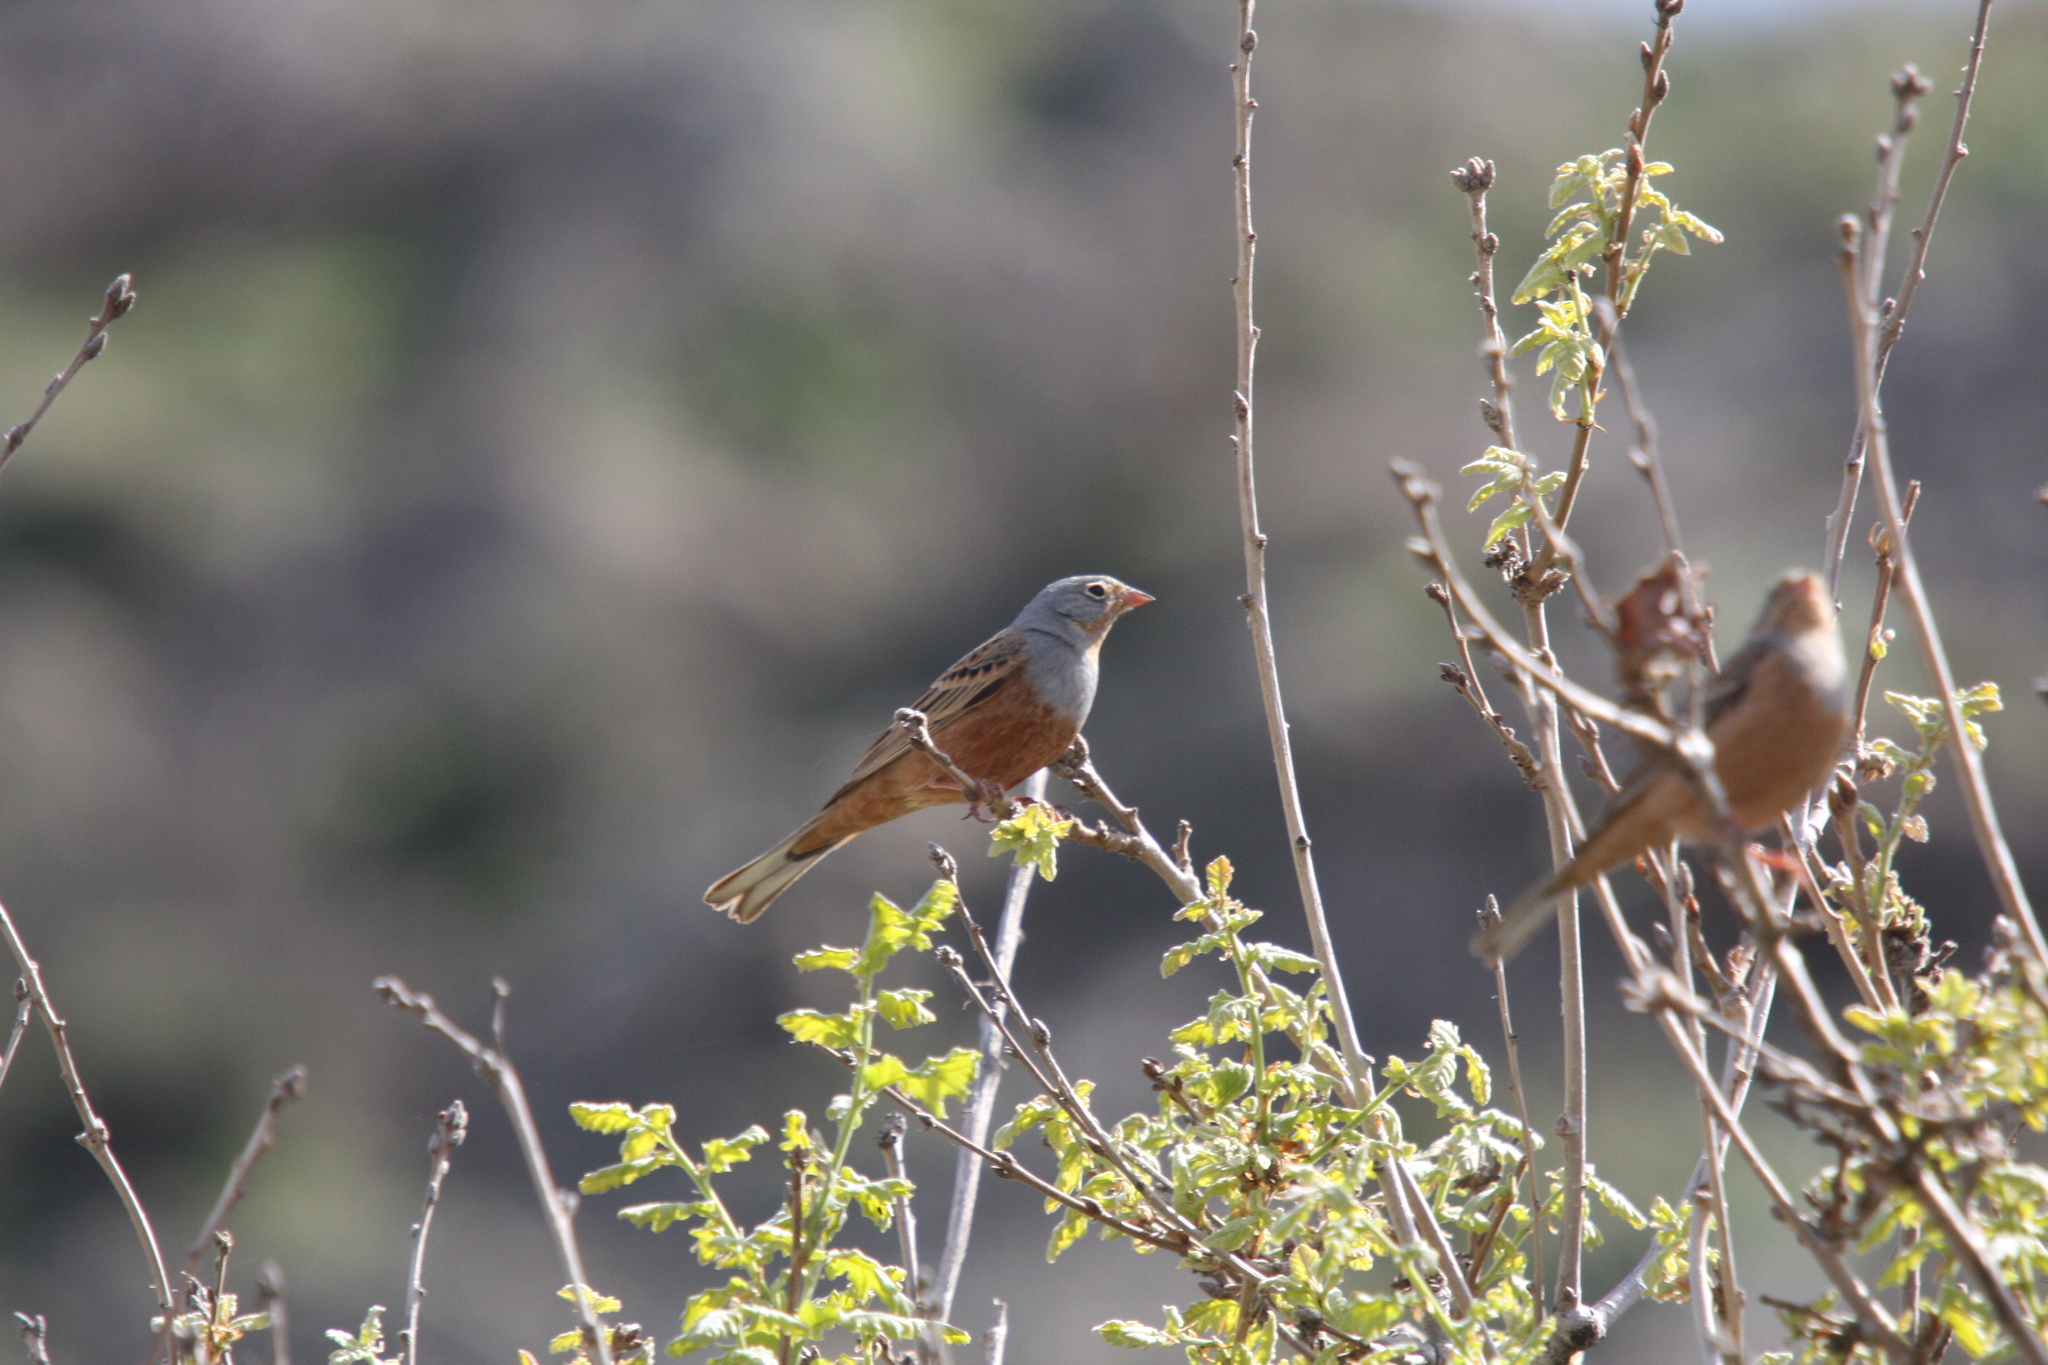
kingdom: Animalia
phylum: Chordata
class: Aves
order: Passeriformes
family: Emberizidae
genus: Emberiza
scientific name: Emberiza caesia
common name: Cretzschmar's bunting
